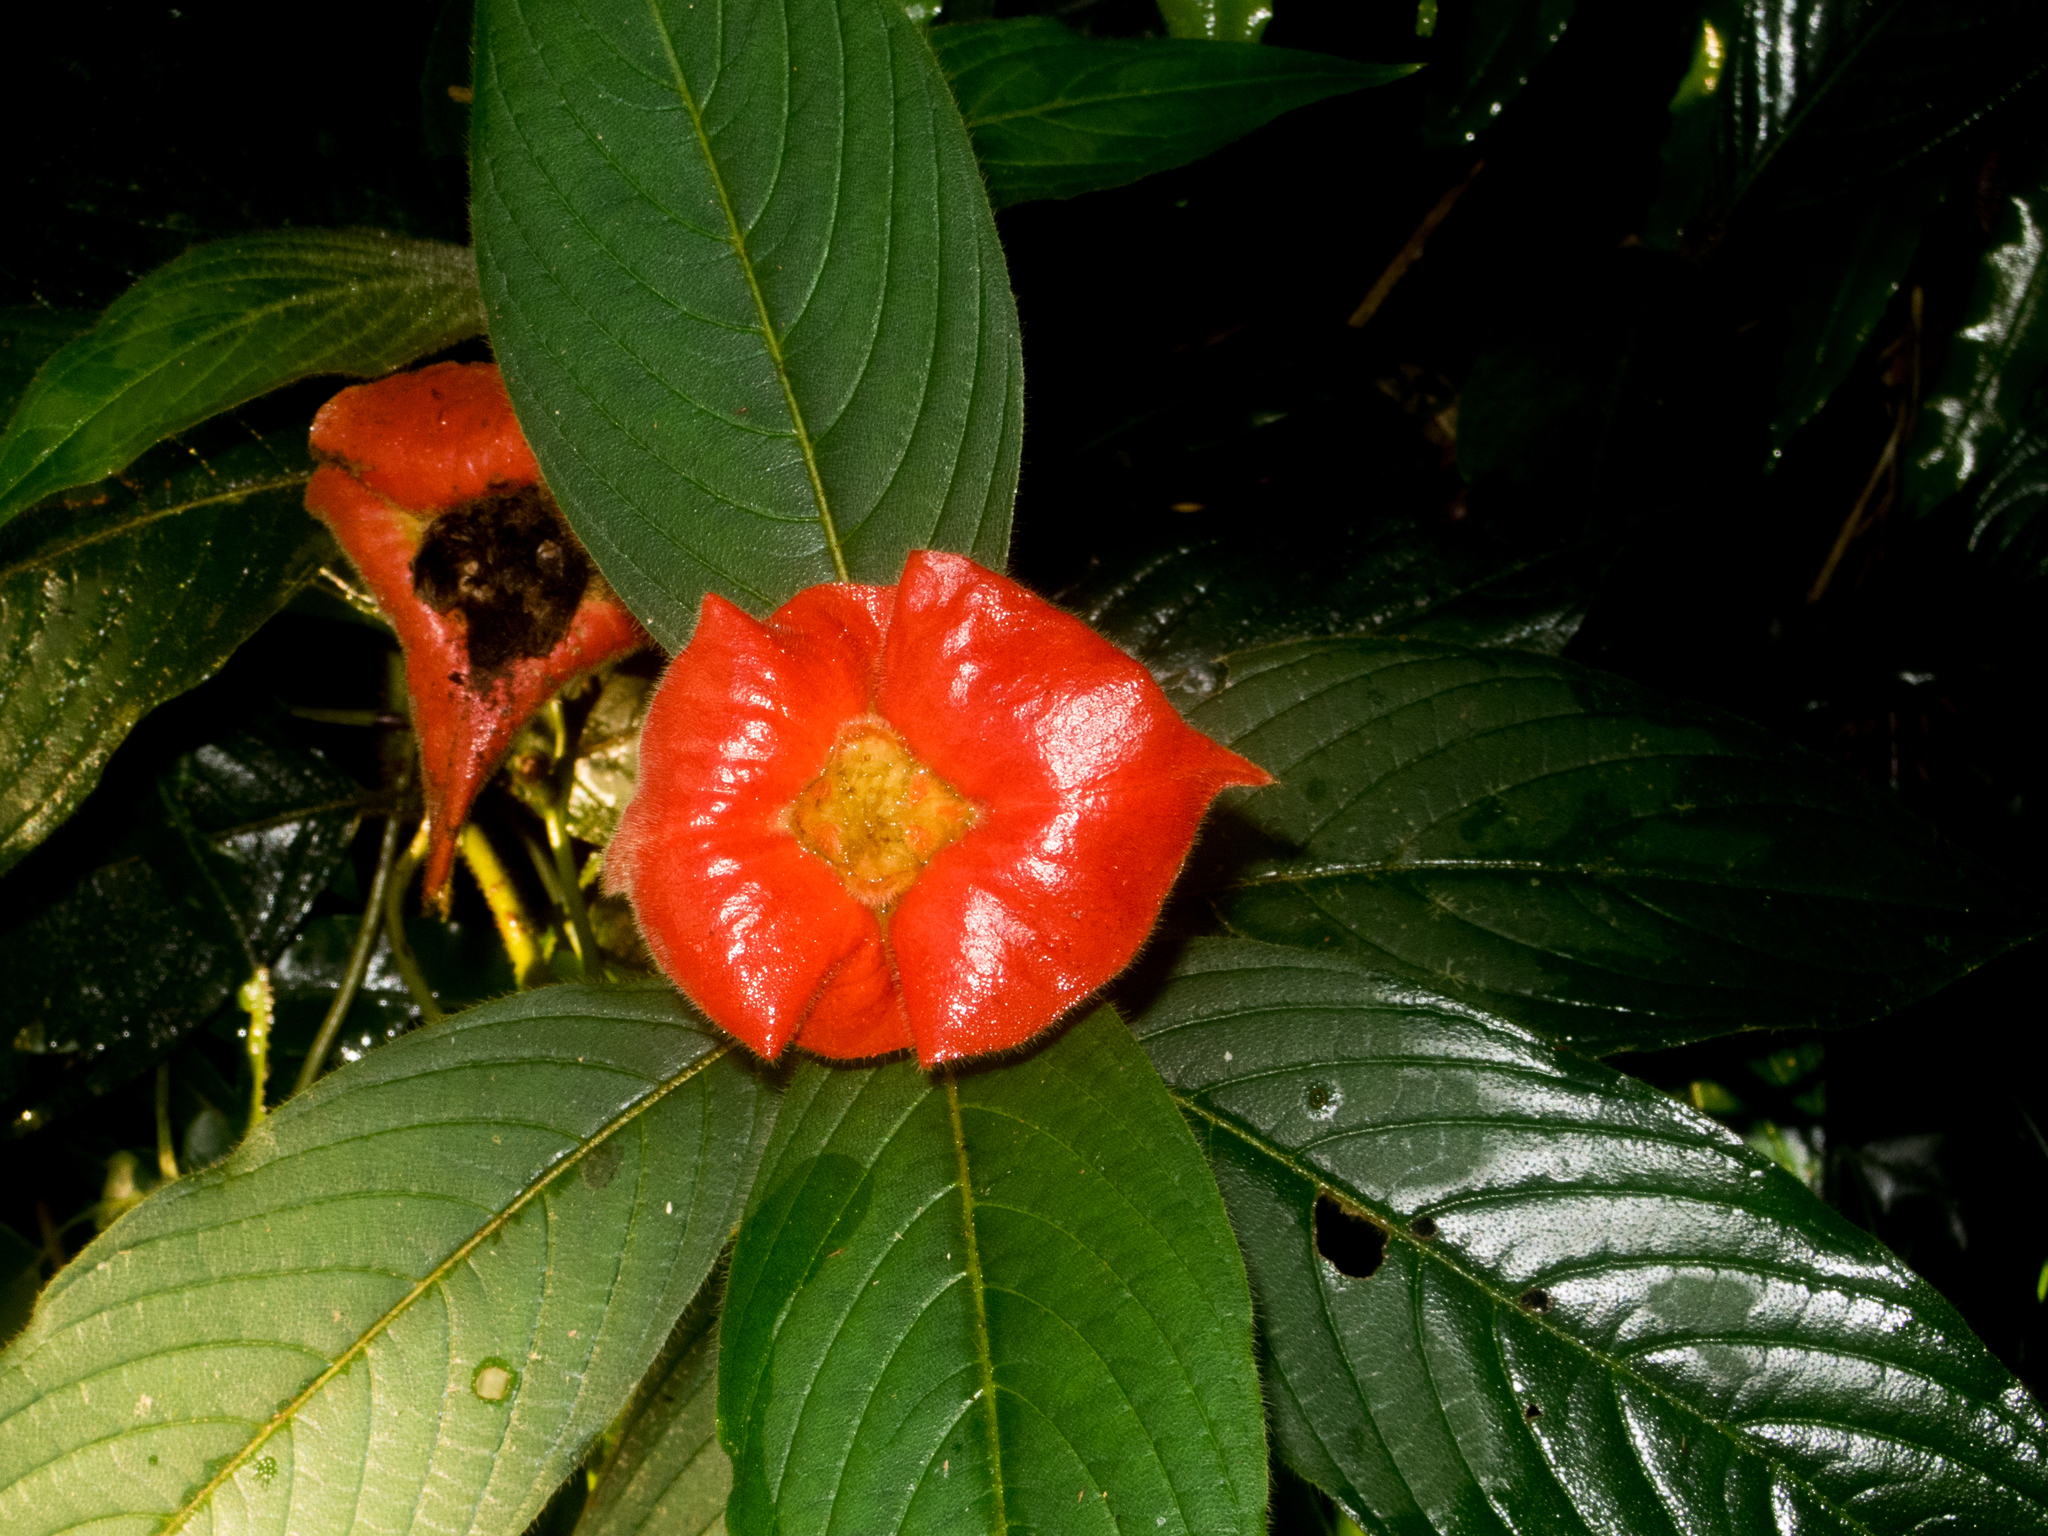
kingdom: Plantae
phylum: Tracheophyta
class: Magnoliopsida
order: Gentianales
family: Rubiaceae
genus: Palicourea
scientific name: Palicourea tomentosa
